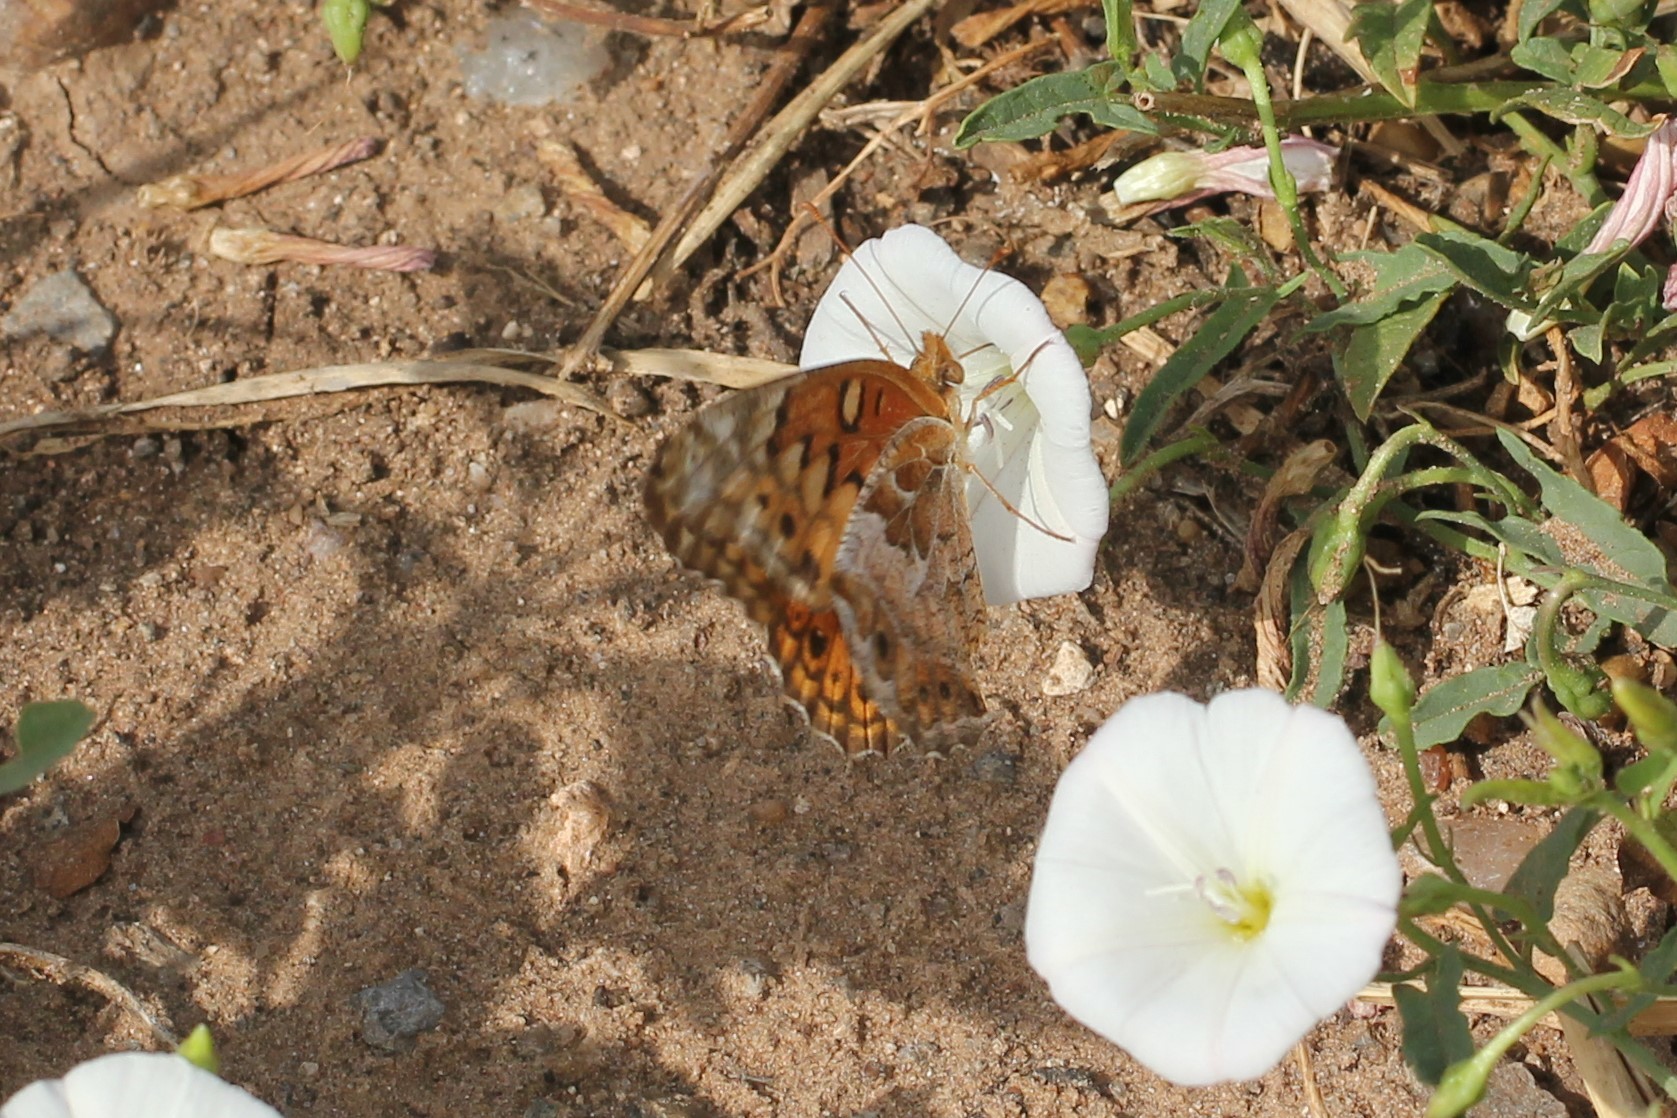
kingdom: Animalia
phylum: Arthropoda
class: Insecta
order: Lepidoptera
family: Nymphalidae
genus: Euptoieta
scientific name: Euptoieta claudia
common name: Variegated fritillary
